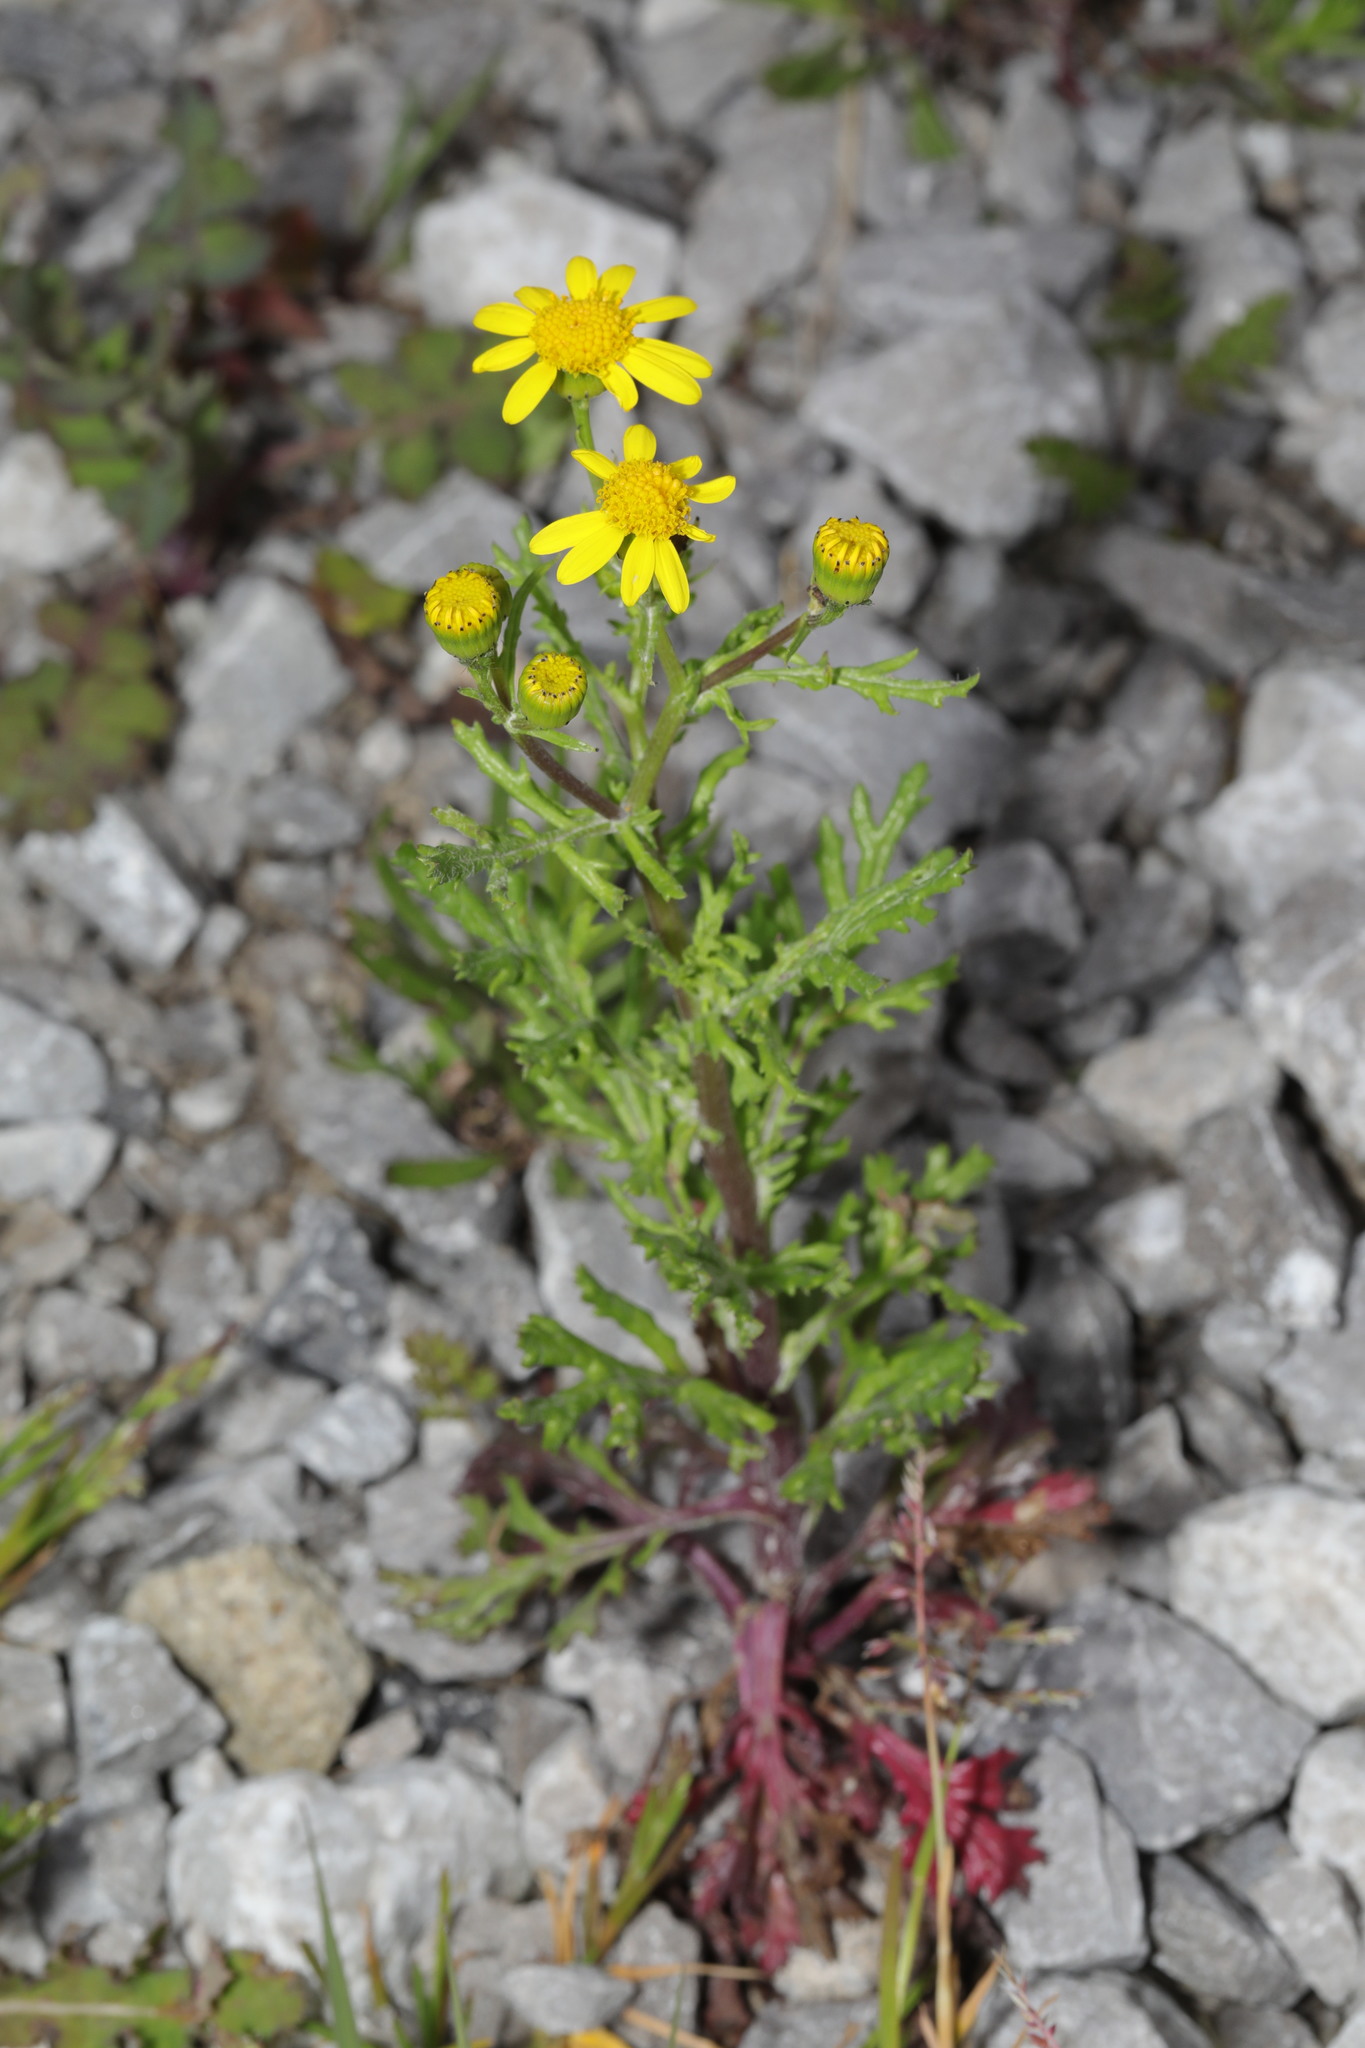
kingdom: Plantae
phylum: Tracheophyta
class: Magnoliopsida
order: Asterales
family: Asteraceae
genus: Senecio
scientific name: Senecio squalidus
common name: Oxford ragwort
